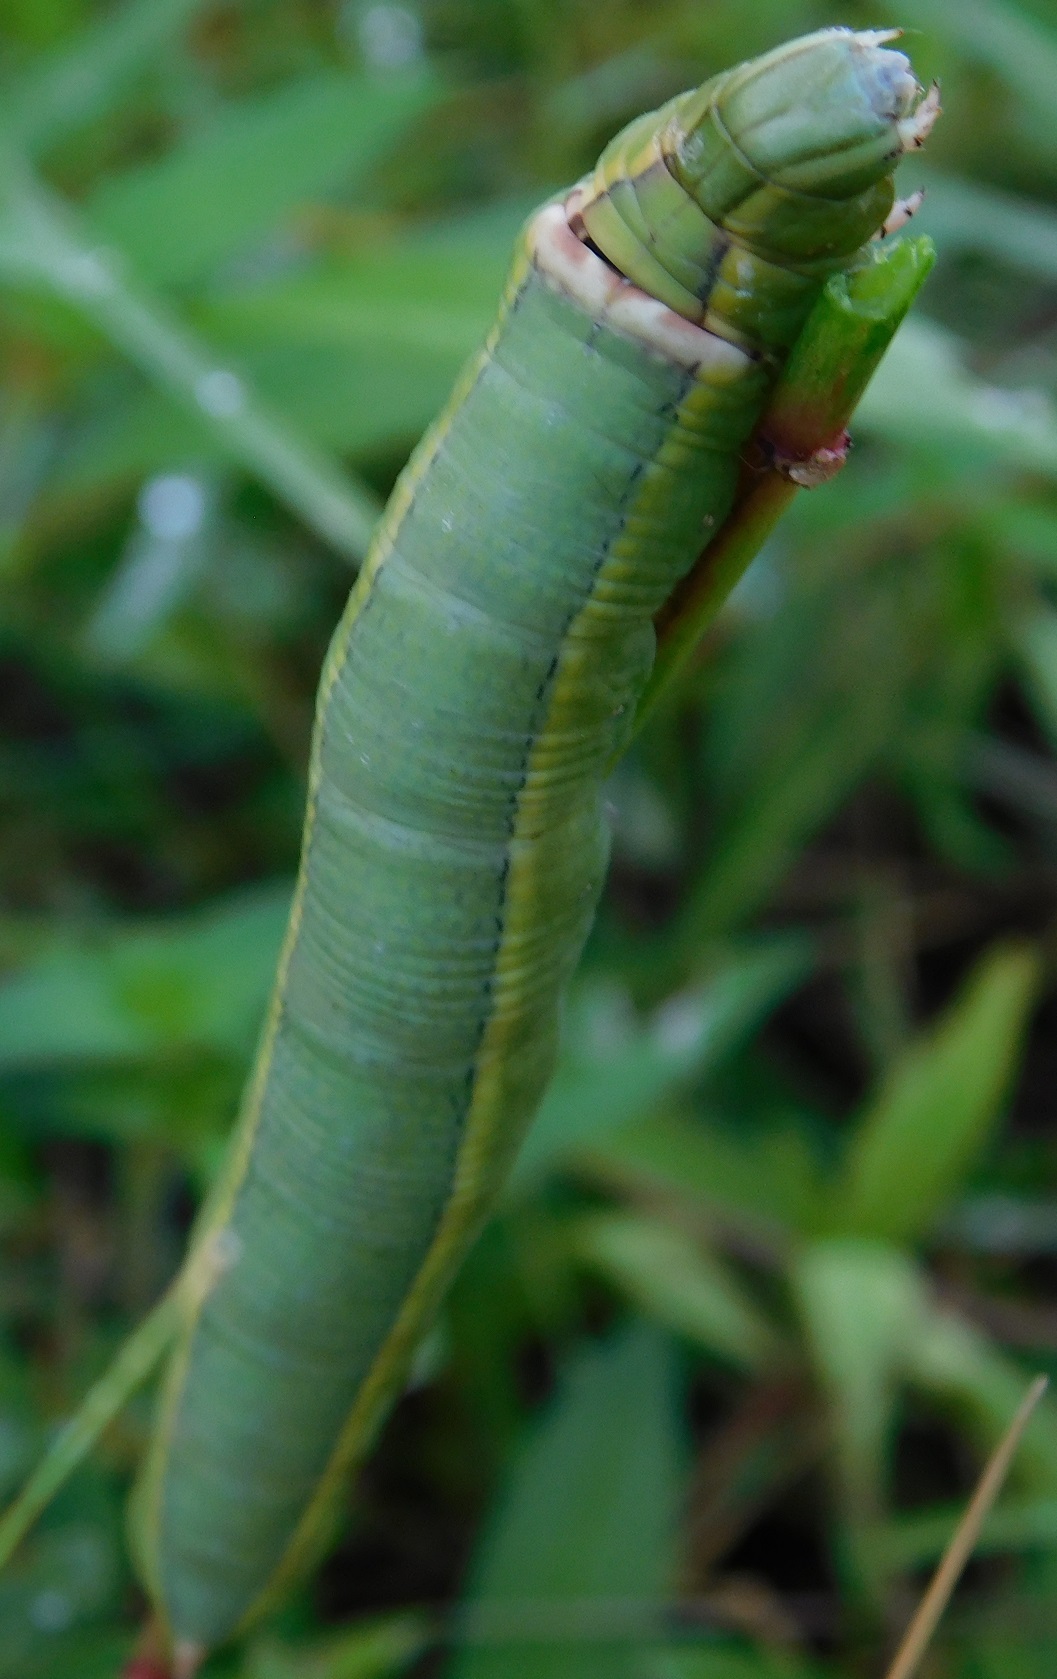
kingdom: Animalia
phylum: Arthropoda
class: Insecta
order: Lepidoptera
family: Sphingidae
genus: Erinnyis
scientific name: Erinnyis ello
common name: Ello sphinx
